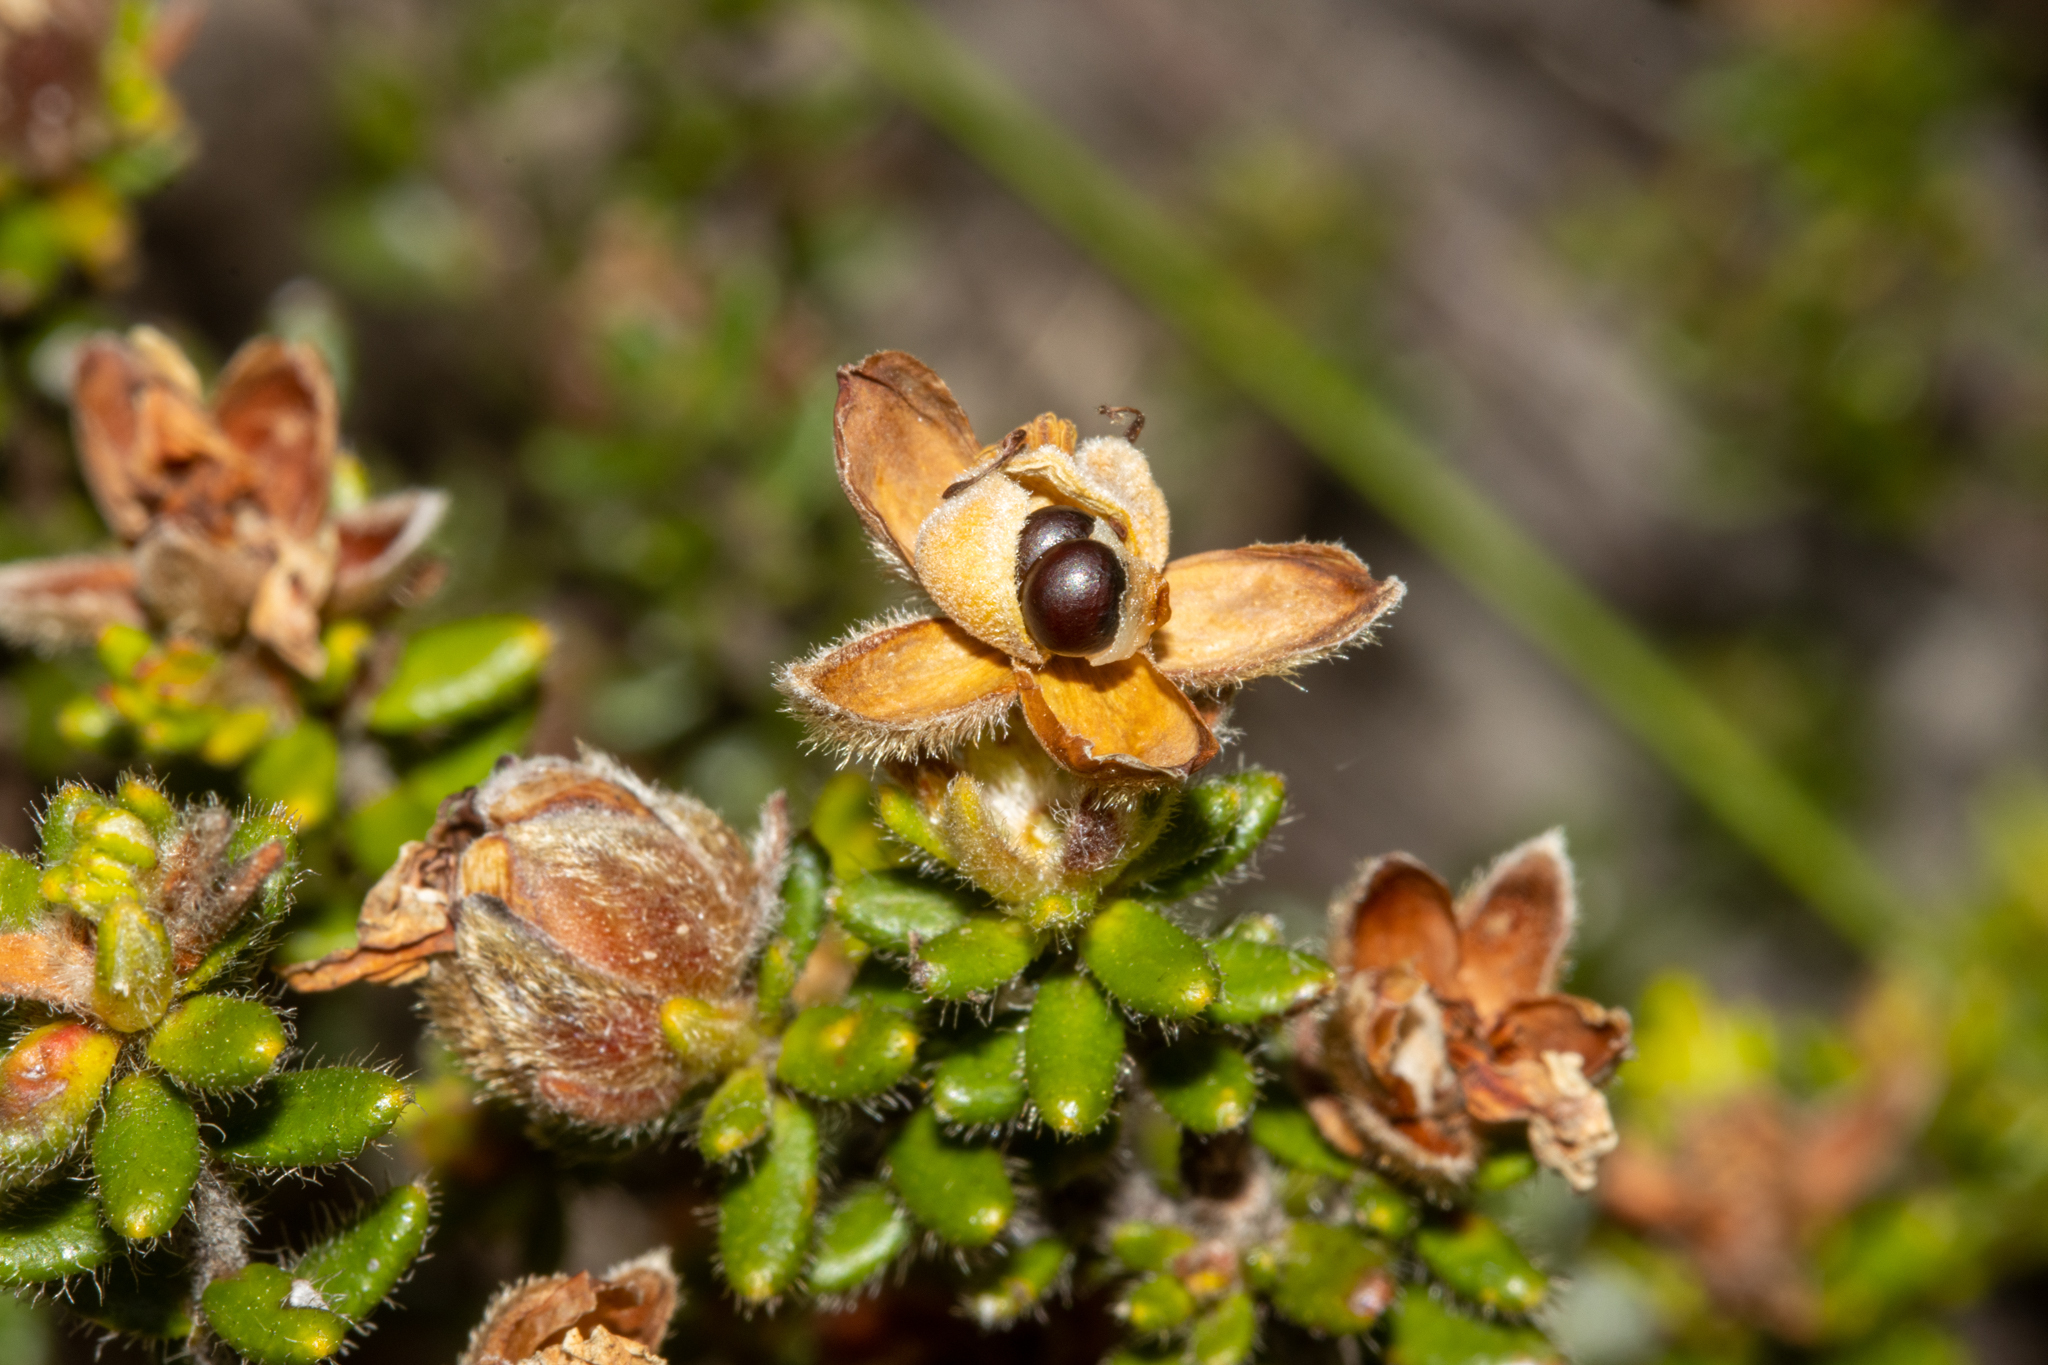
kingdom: Plantae
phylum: Tracheophyta
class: Magnoliopsida
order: Dilleniales
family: Dilleniaceae
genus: Hibbertia
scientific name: Hibbertia sericea
